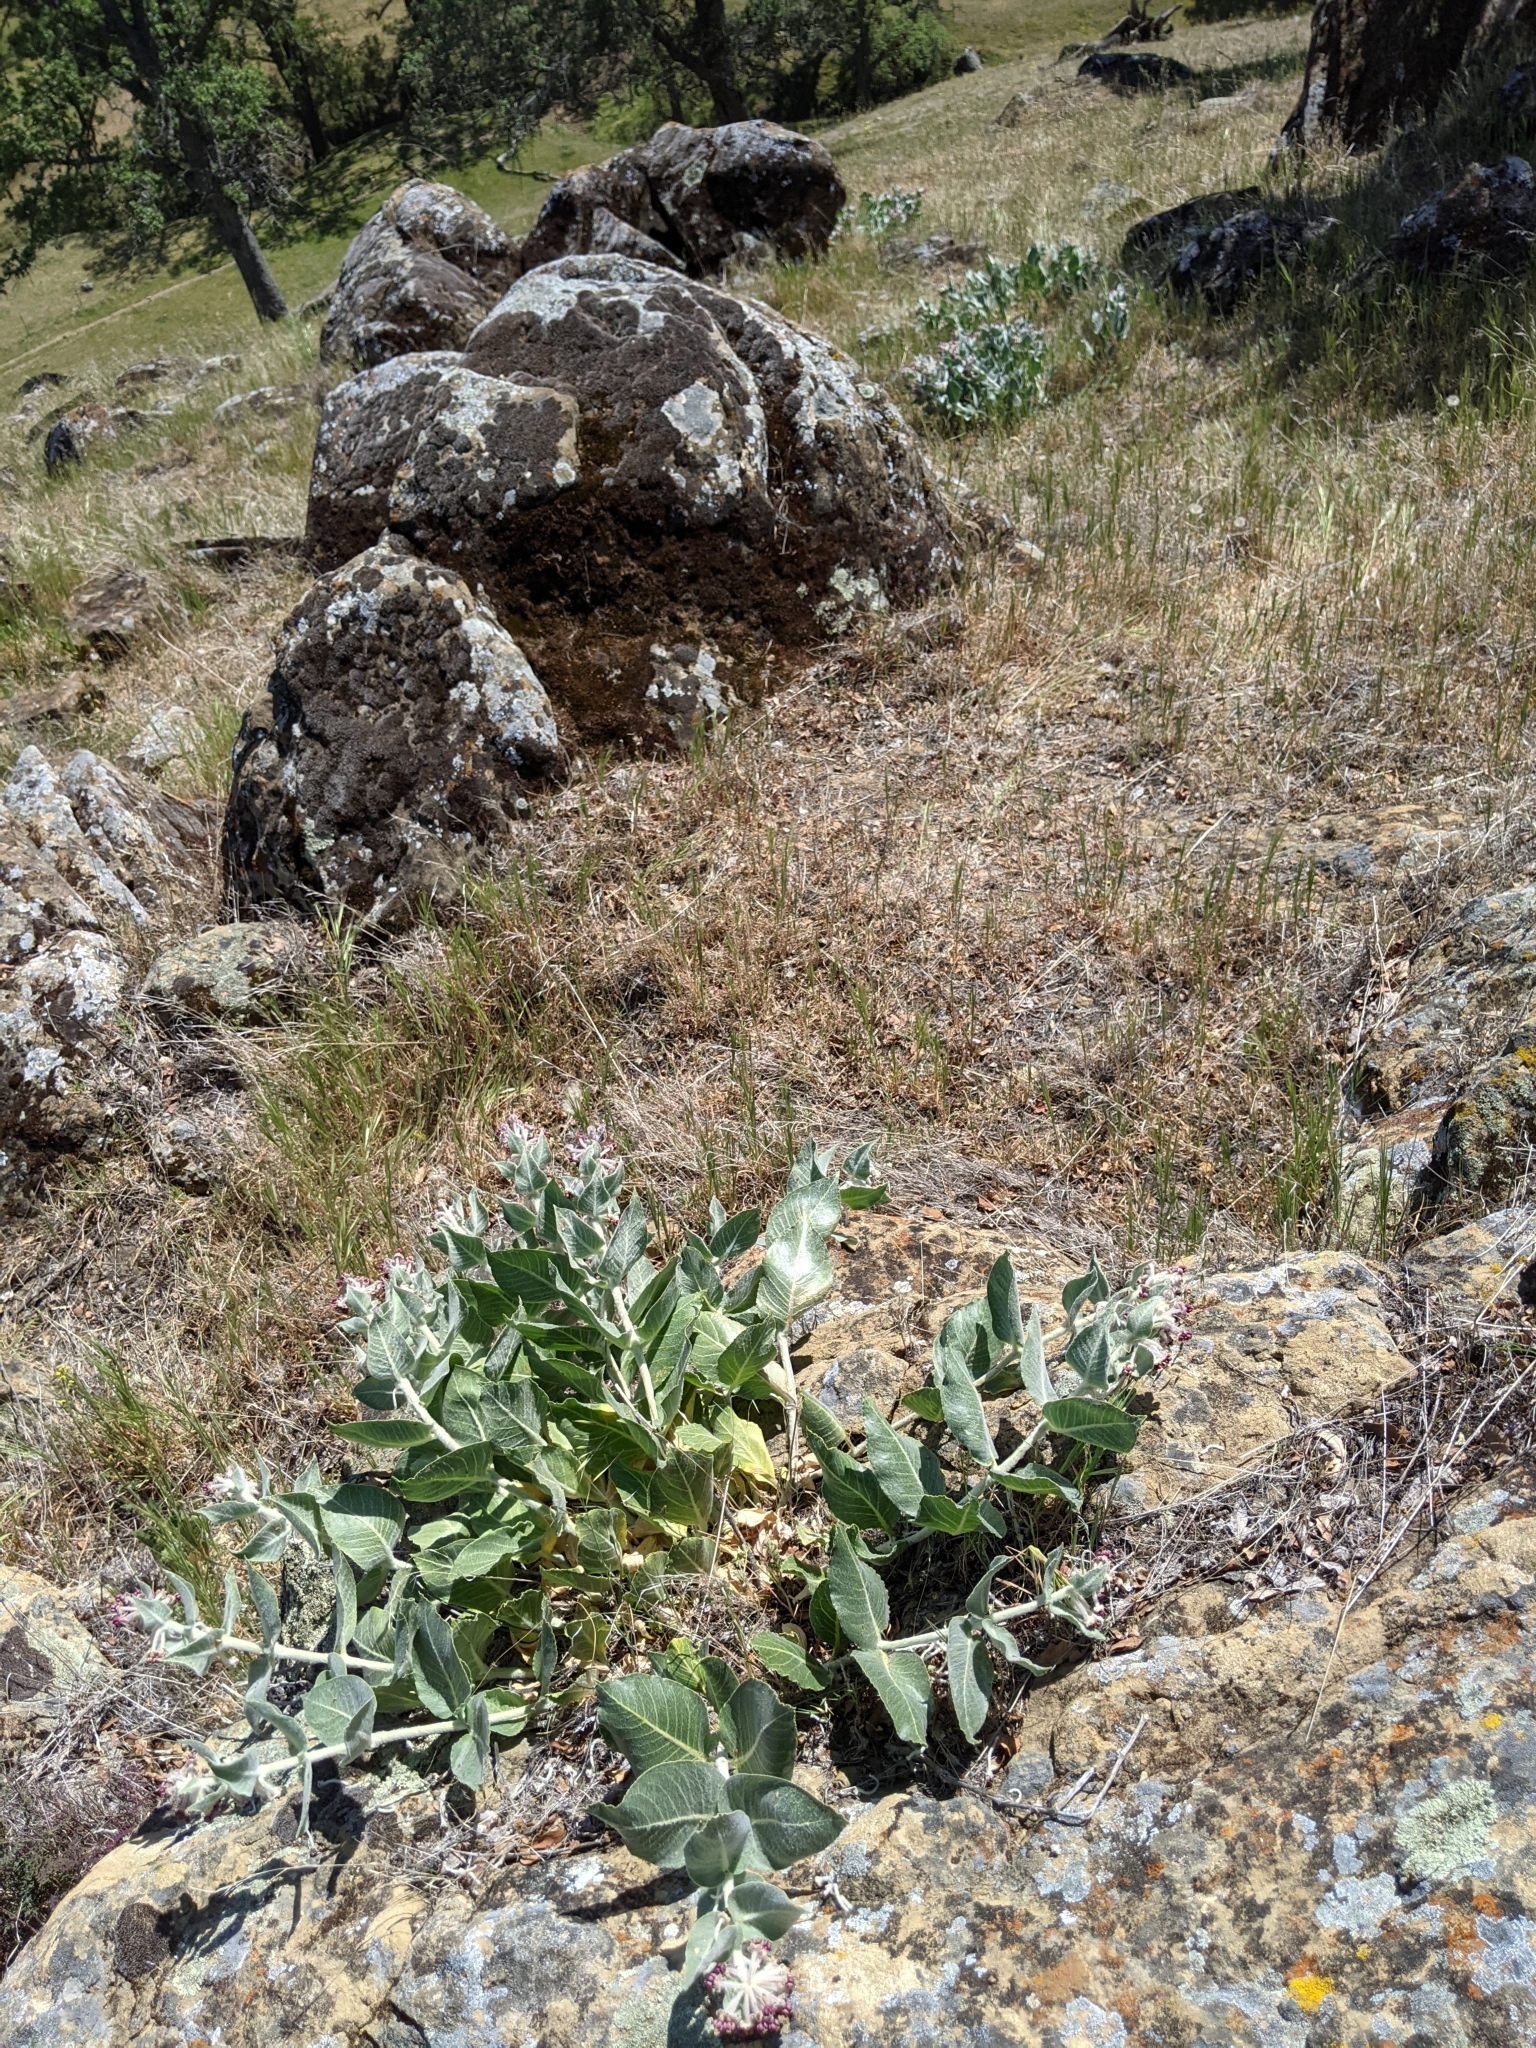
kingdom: Plantae
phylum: Tracheophyta
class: Magnoliopsida
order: Gentianales
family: Apocynaceae
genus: Asclepias
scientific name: Asclepias californica
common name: California milkweed
